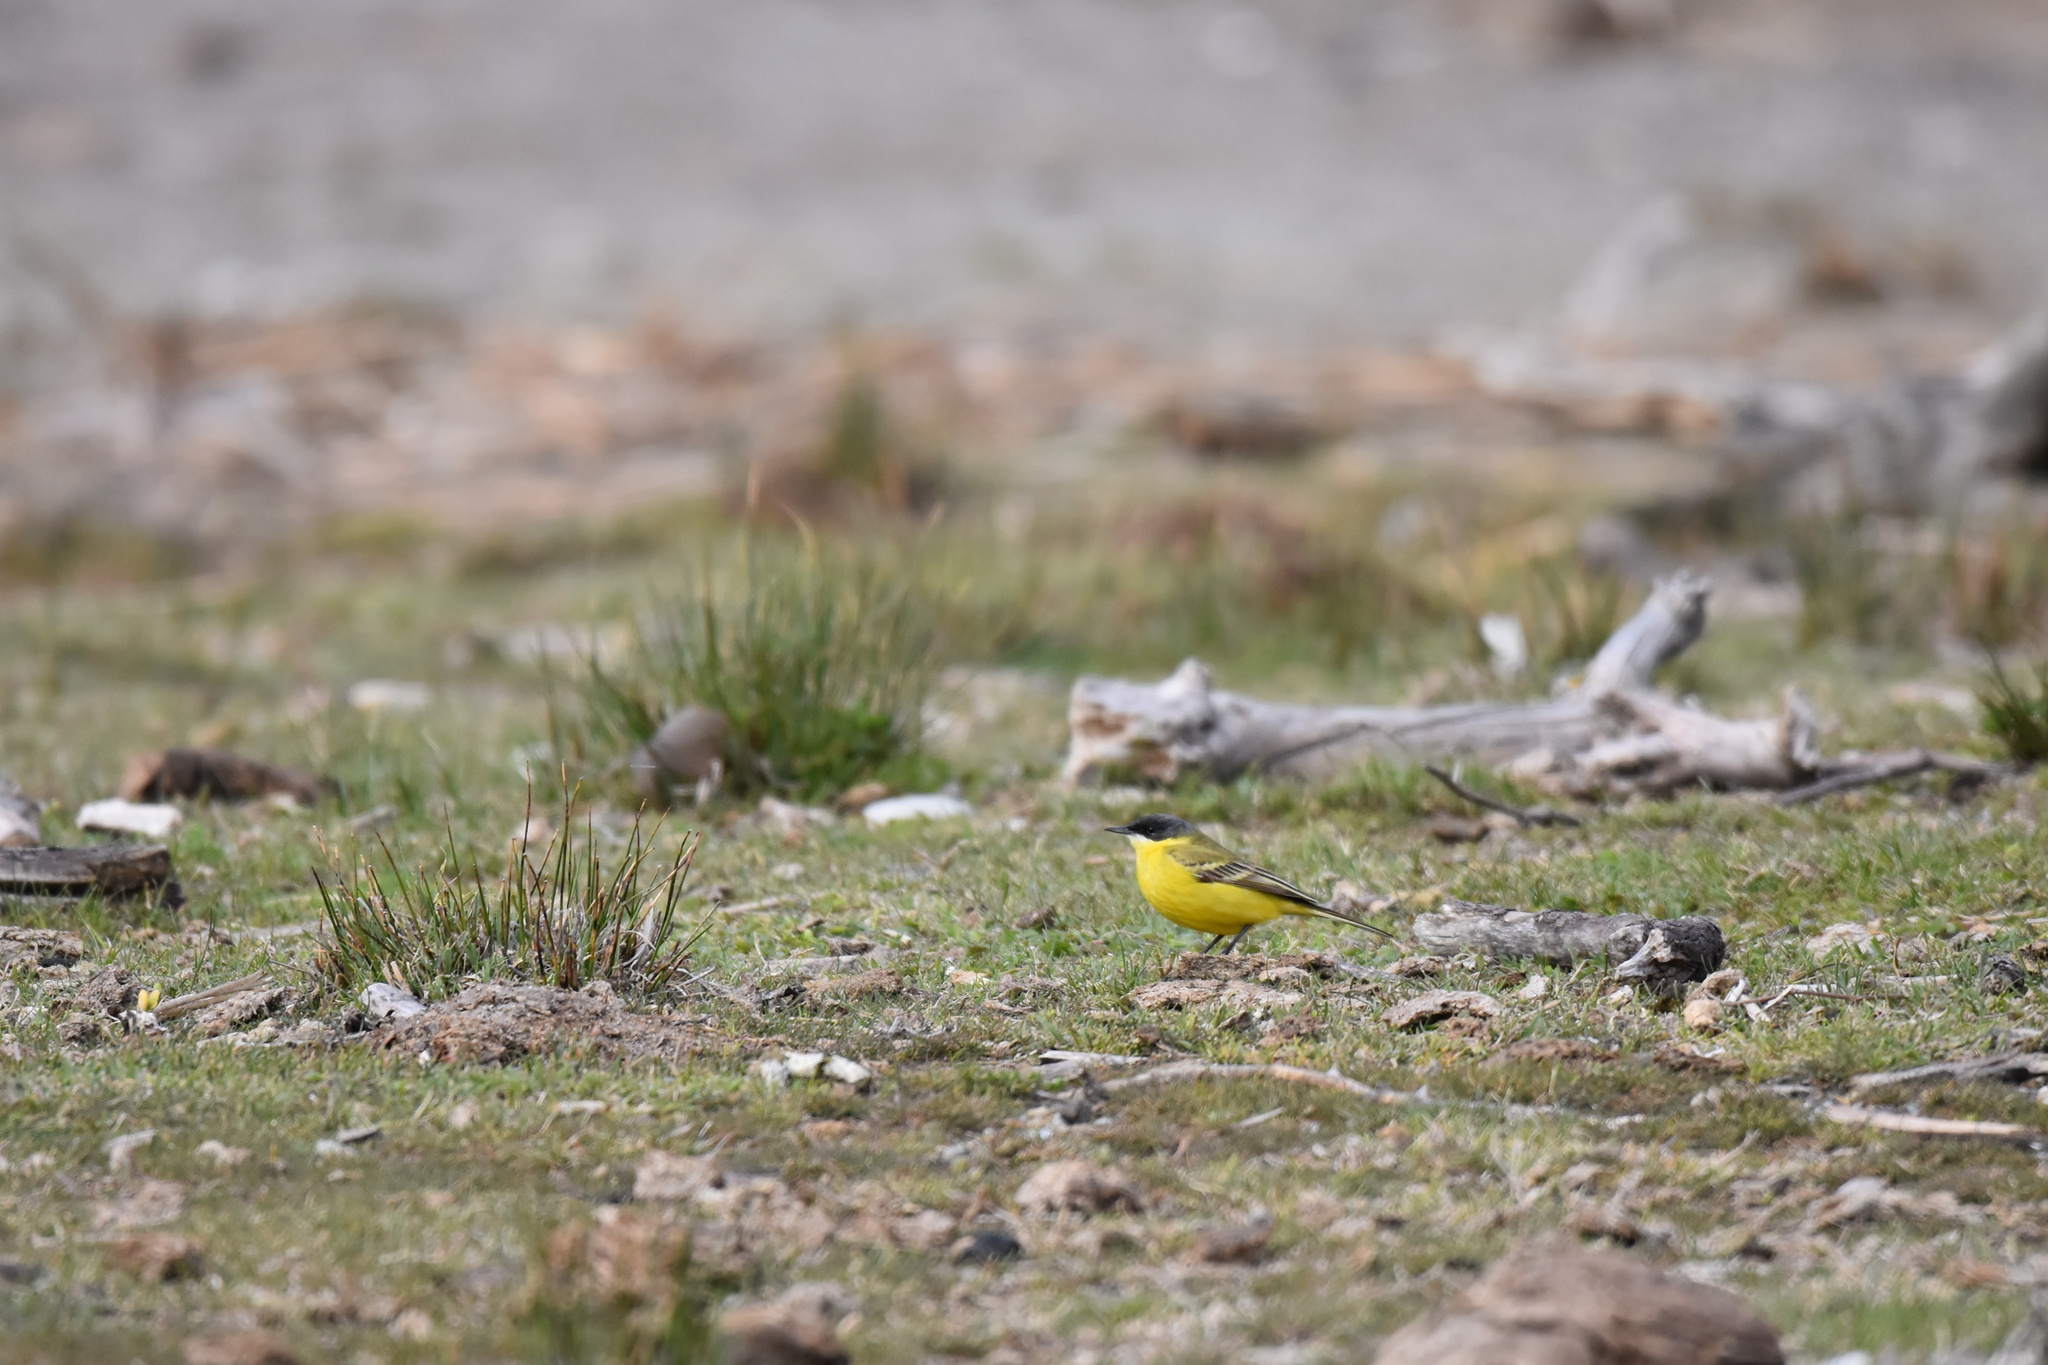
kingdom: Animalia
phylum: Chordata
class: Aves
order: Passeriformes
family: Motacillidae
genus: Motacilla
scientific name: Motacilla flava
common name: Western yellow wagtail
